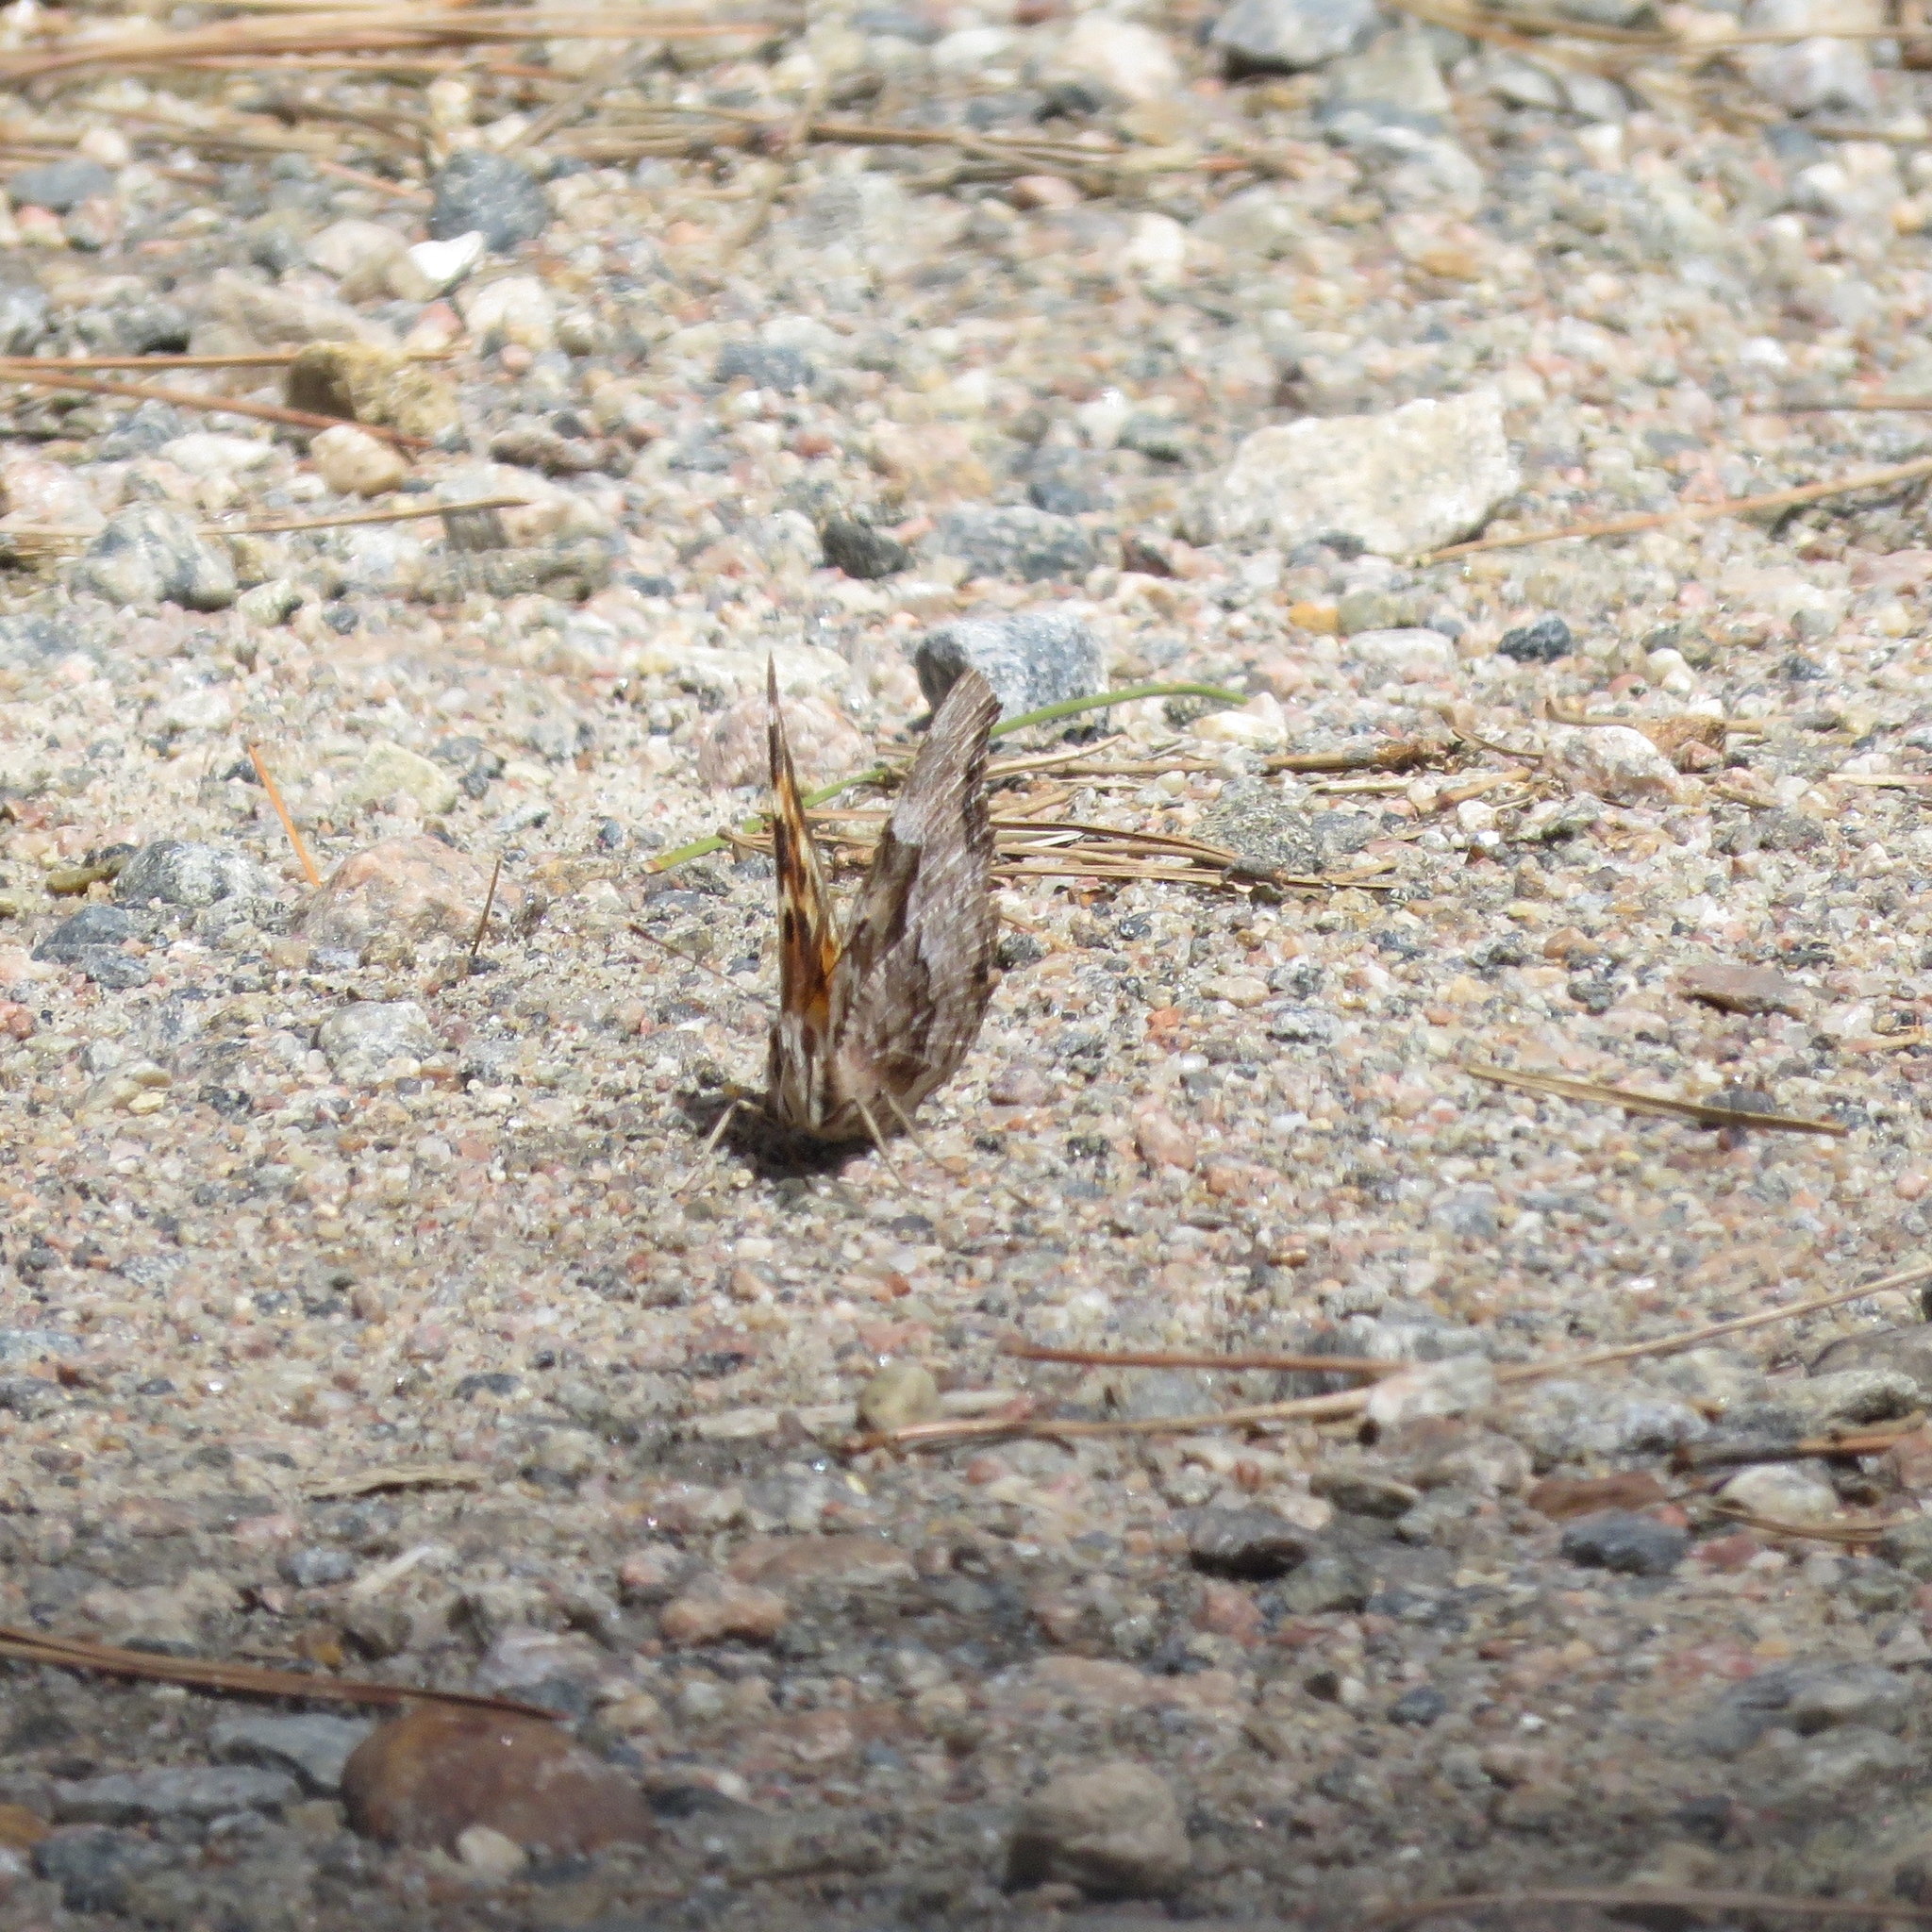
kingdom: Animalia
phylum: Arthropoda
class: Insecta
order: Lepidoptera
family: Nymphalidae
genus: Polygonia
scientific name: Polygonia vaualbum
